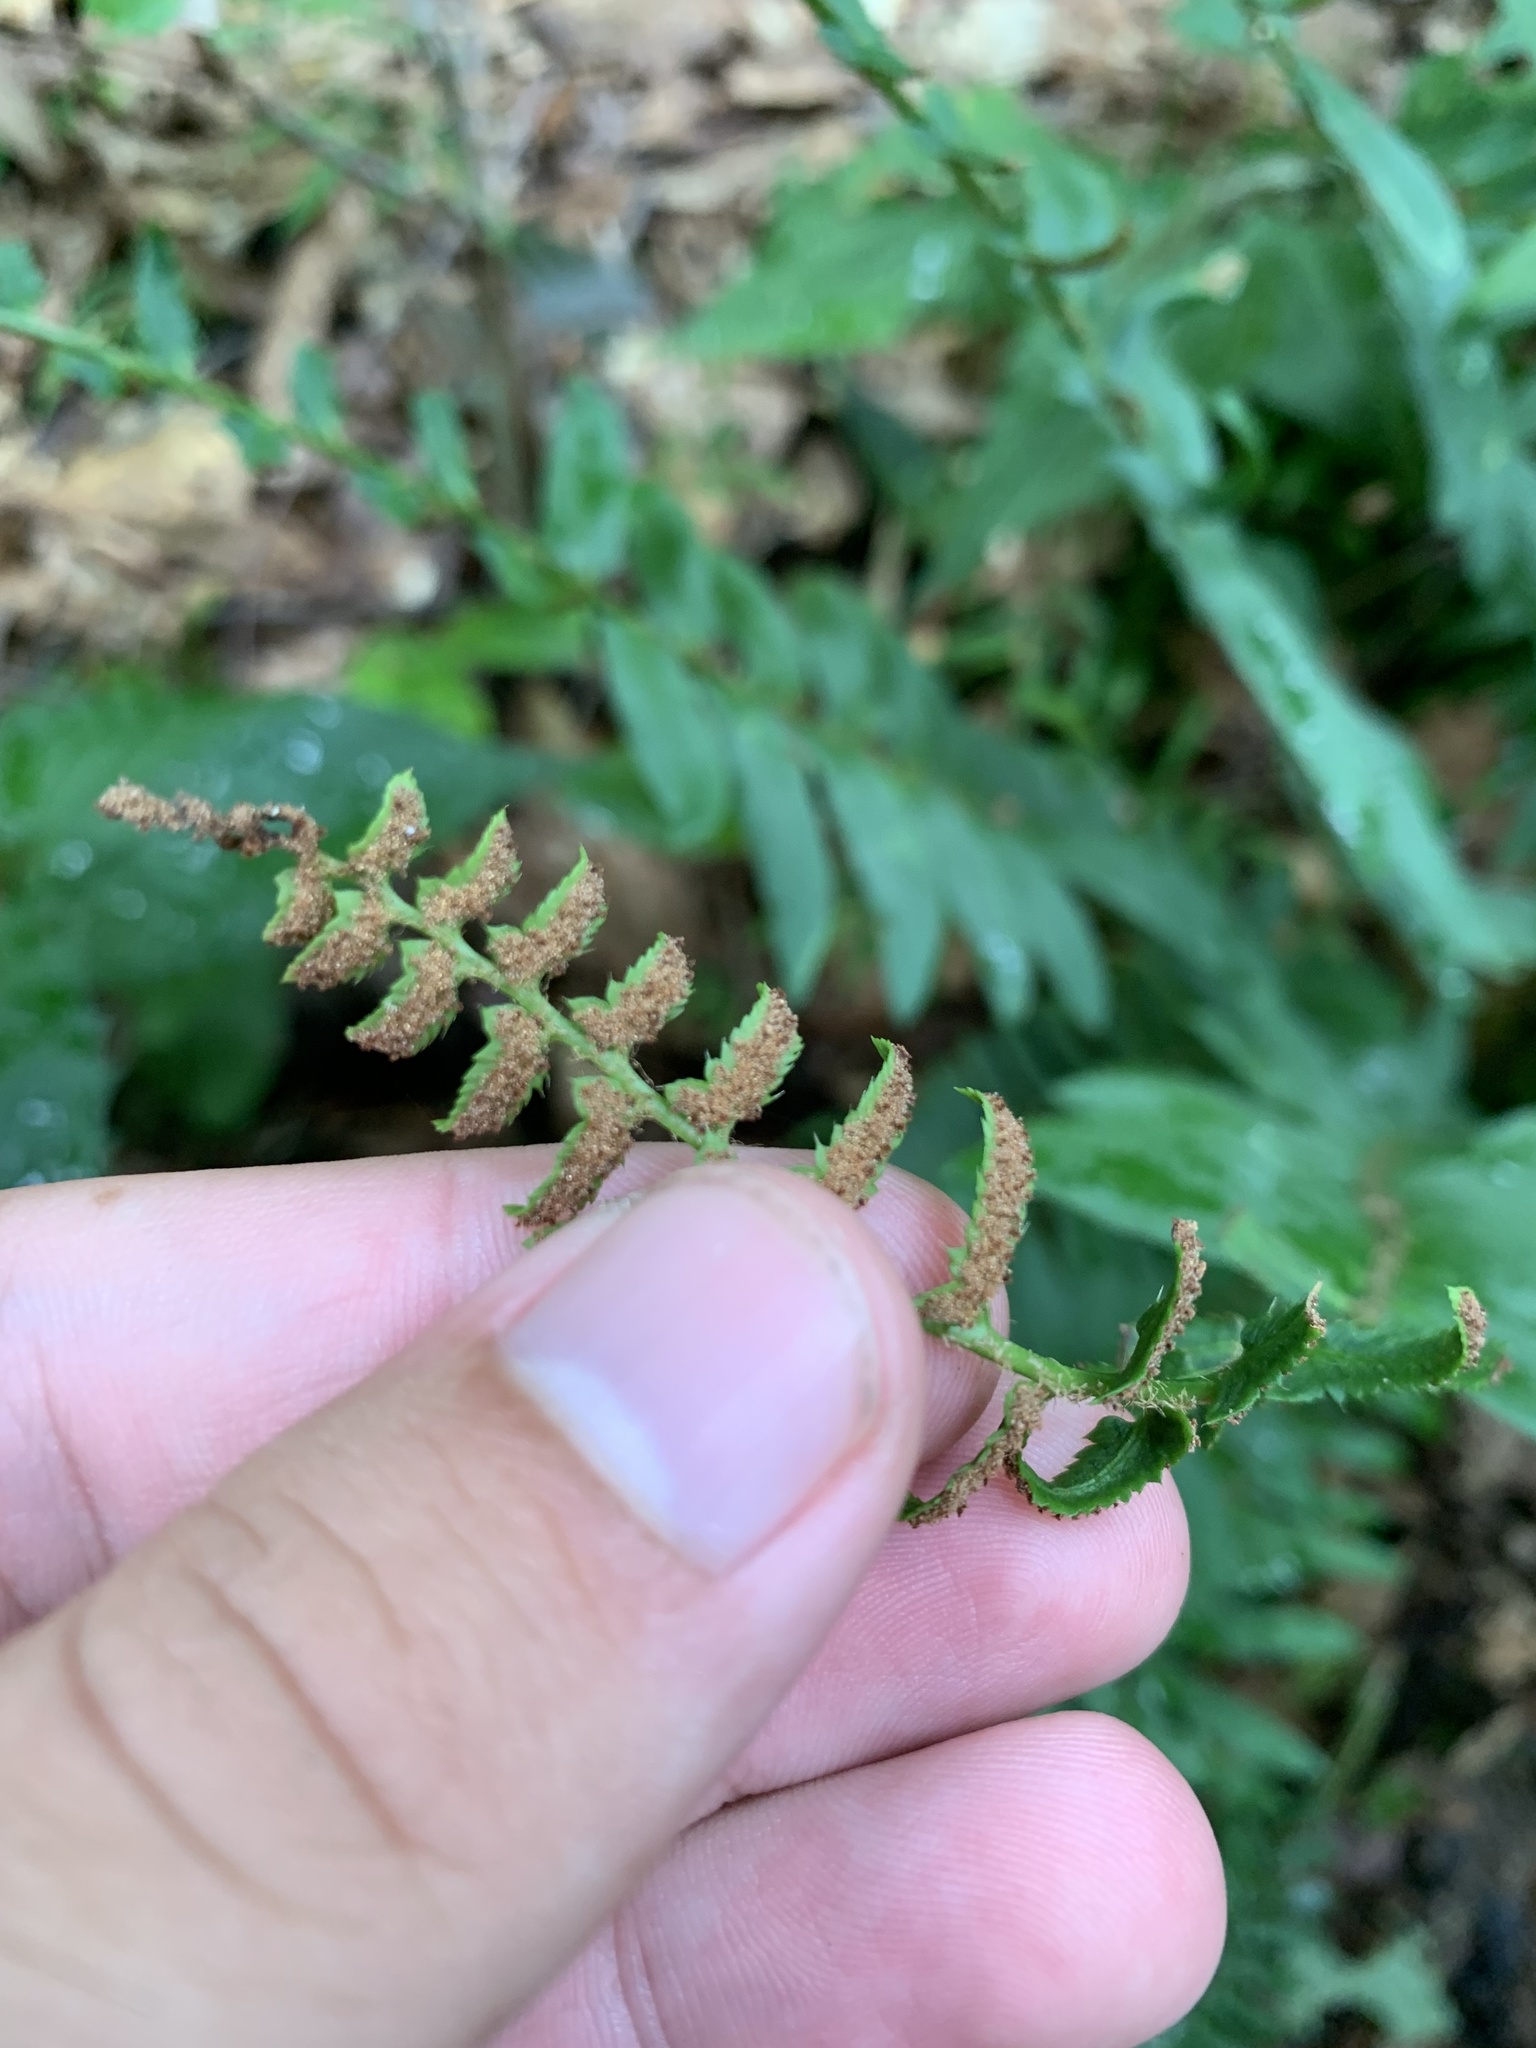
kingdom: Plantae
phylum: Tracheophyta
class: Polypodiopsida
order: Polypodiales
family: Dryopteridaceae
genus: Polystichum
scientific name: Polystichum acrostichoides
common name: Christmas fern
